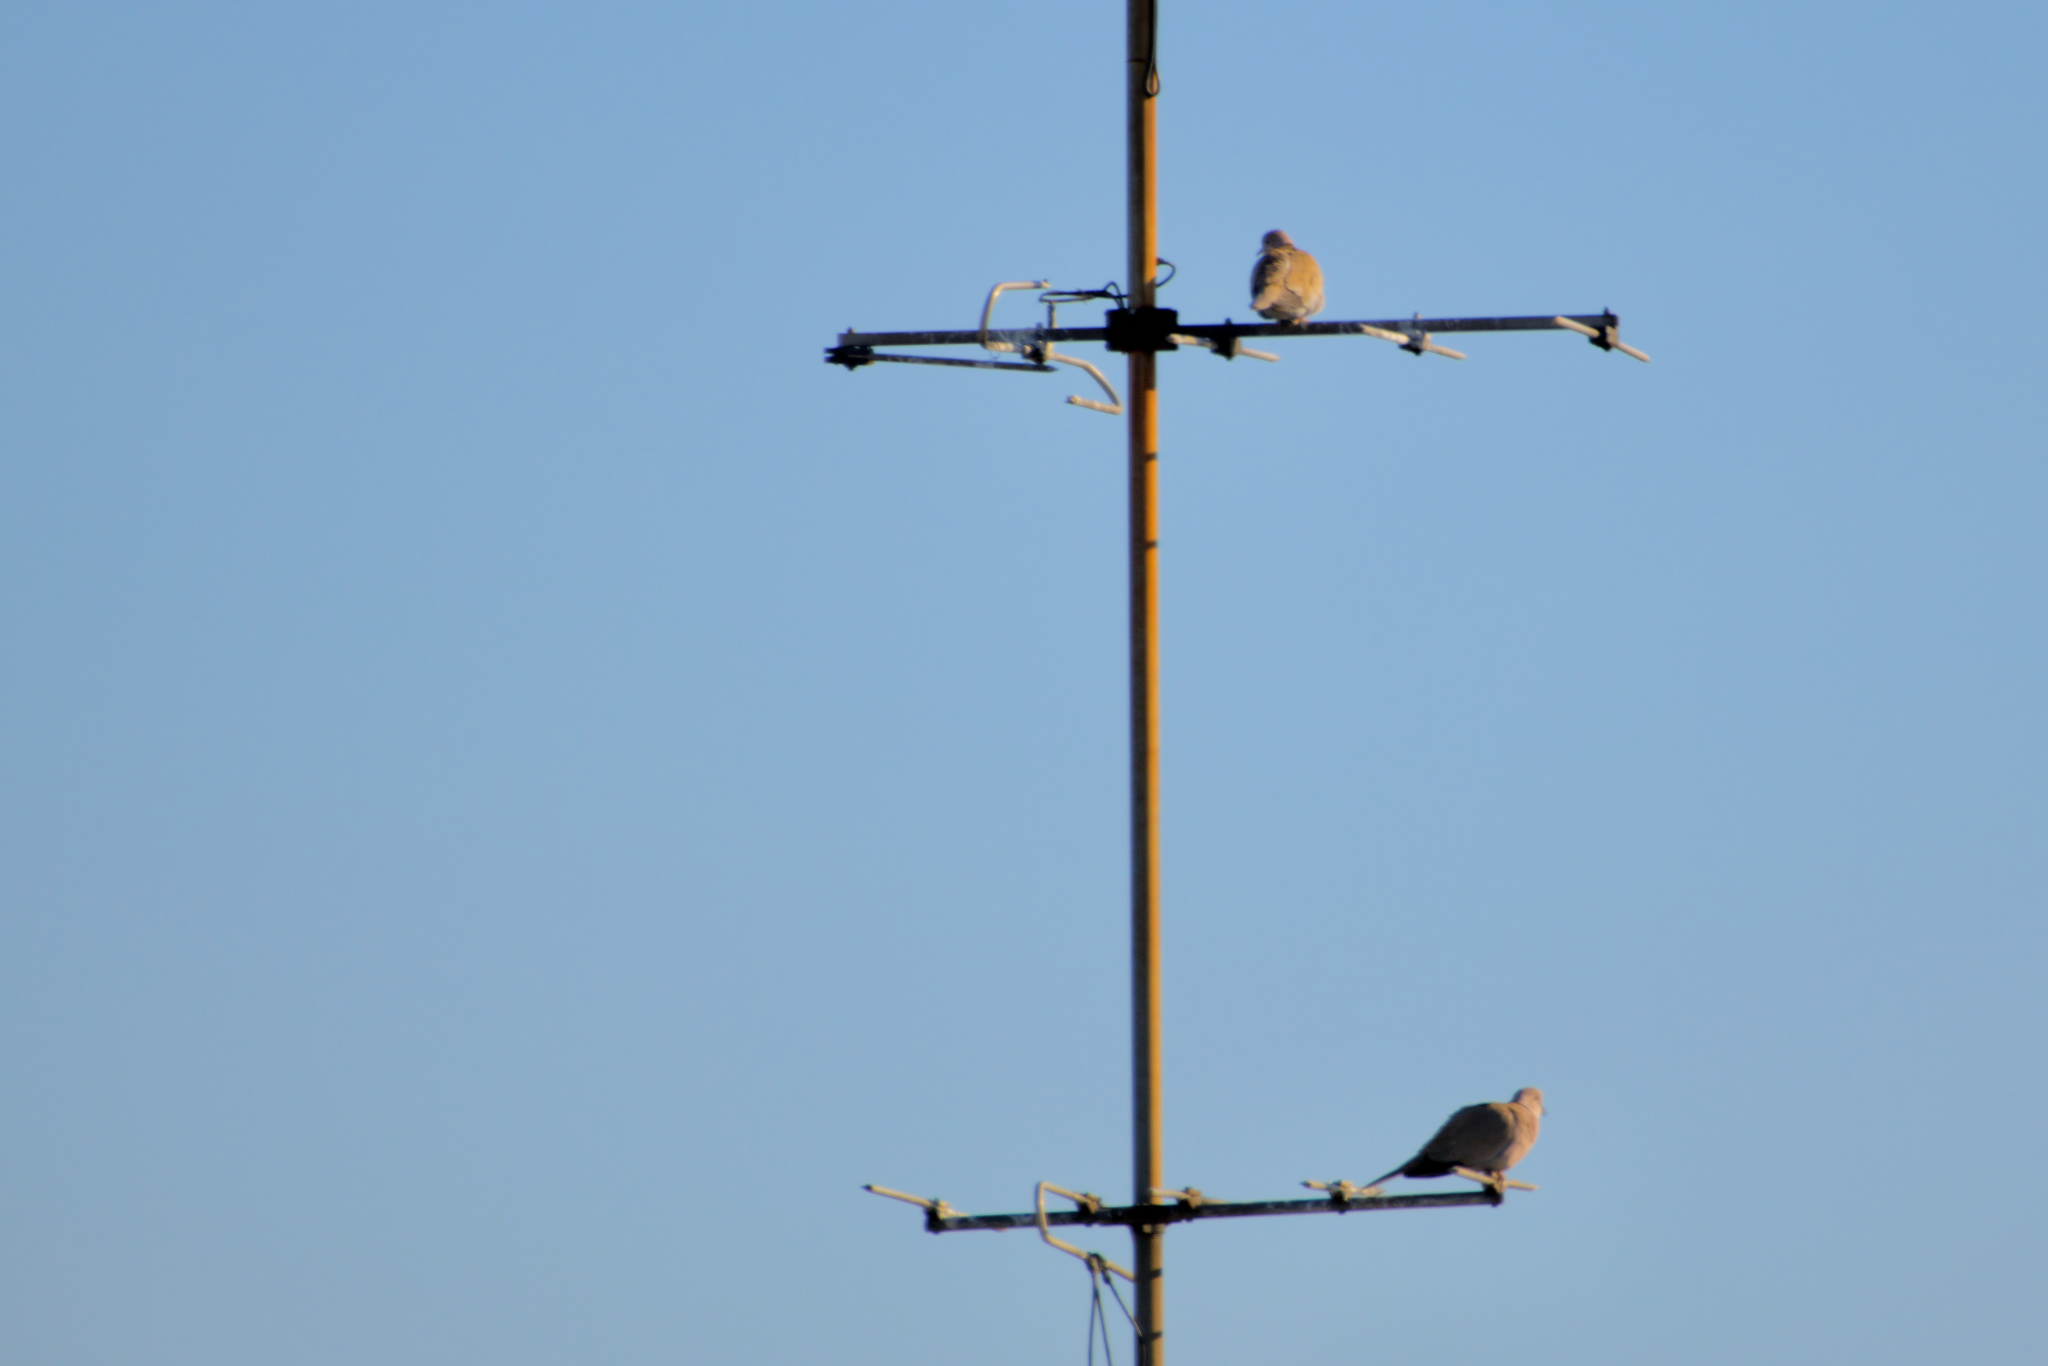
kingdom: Animalia
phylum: Chordata
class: Aves
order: Columbiformes
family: Columbidae
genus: Streptopelia
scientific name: Streptopelia decaocto
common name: Eurasian collared dove
